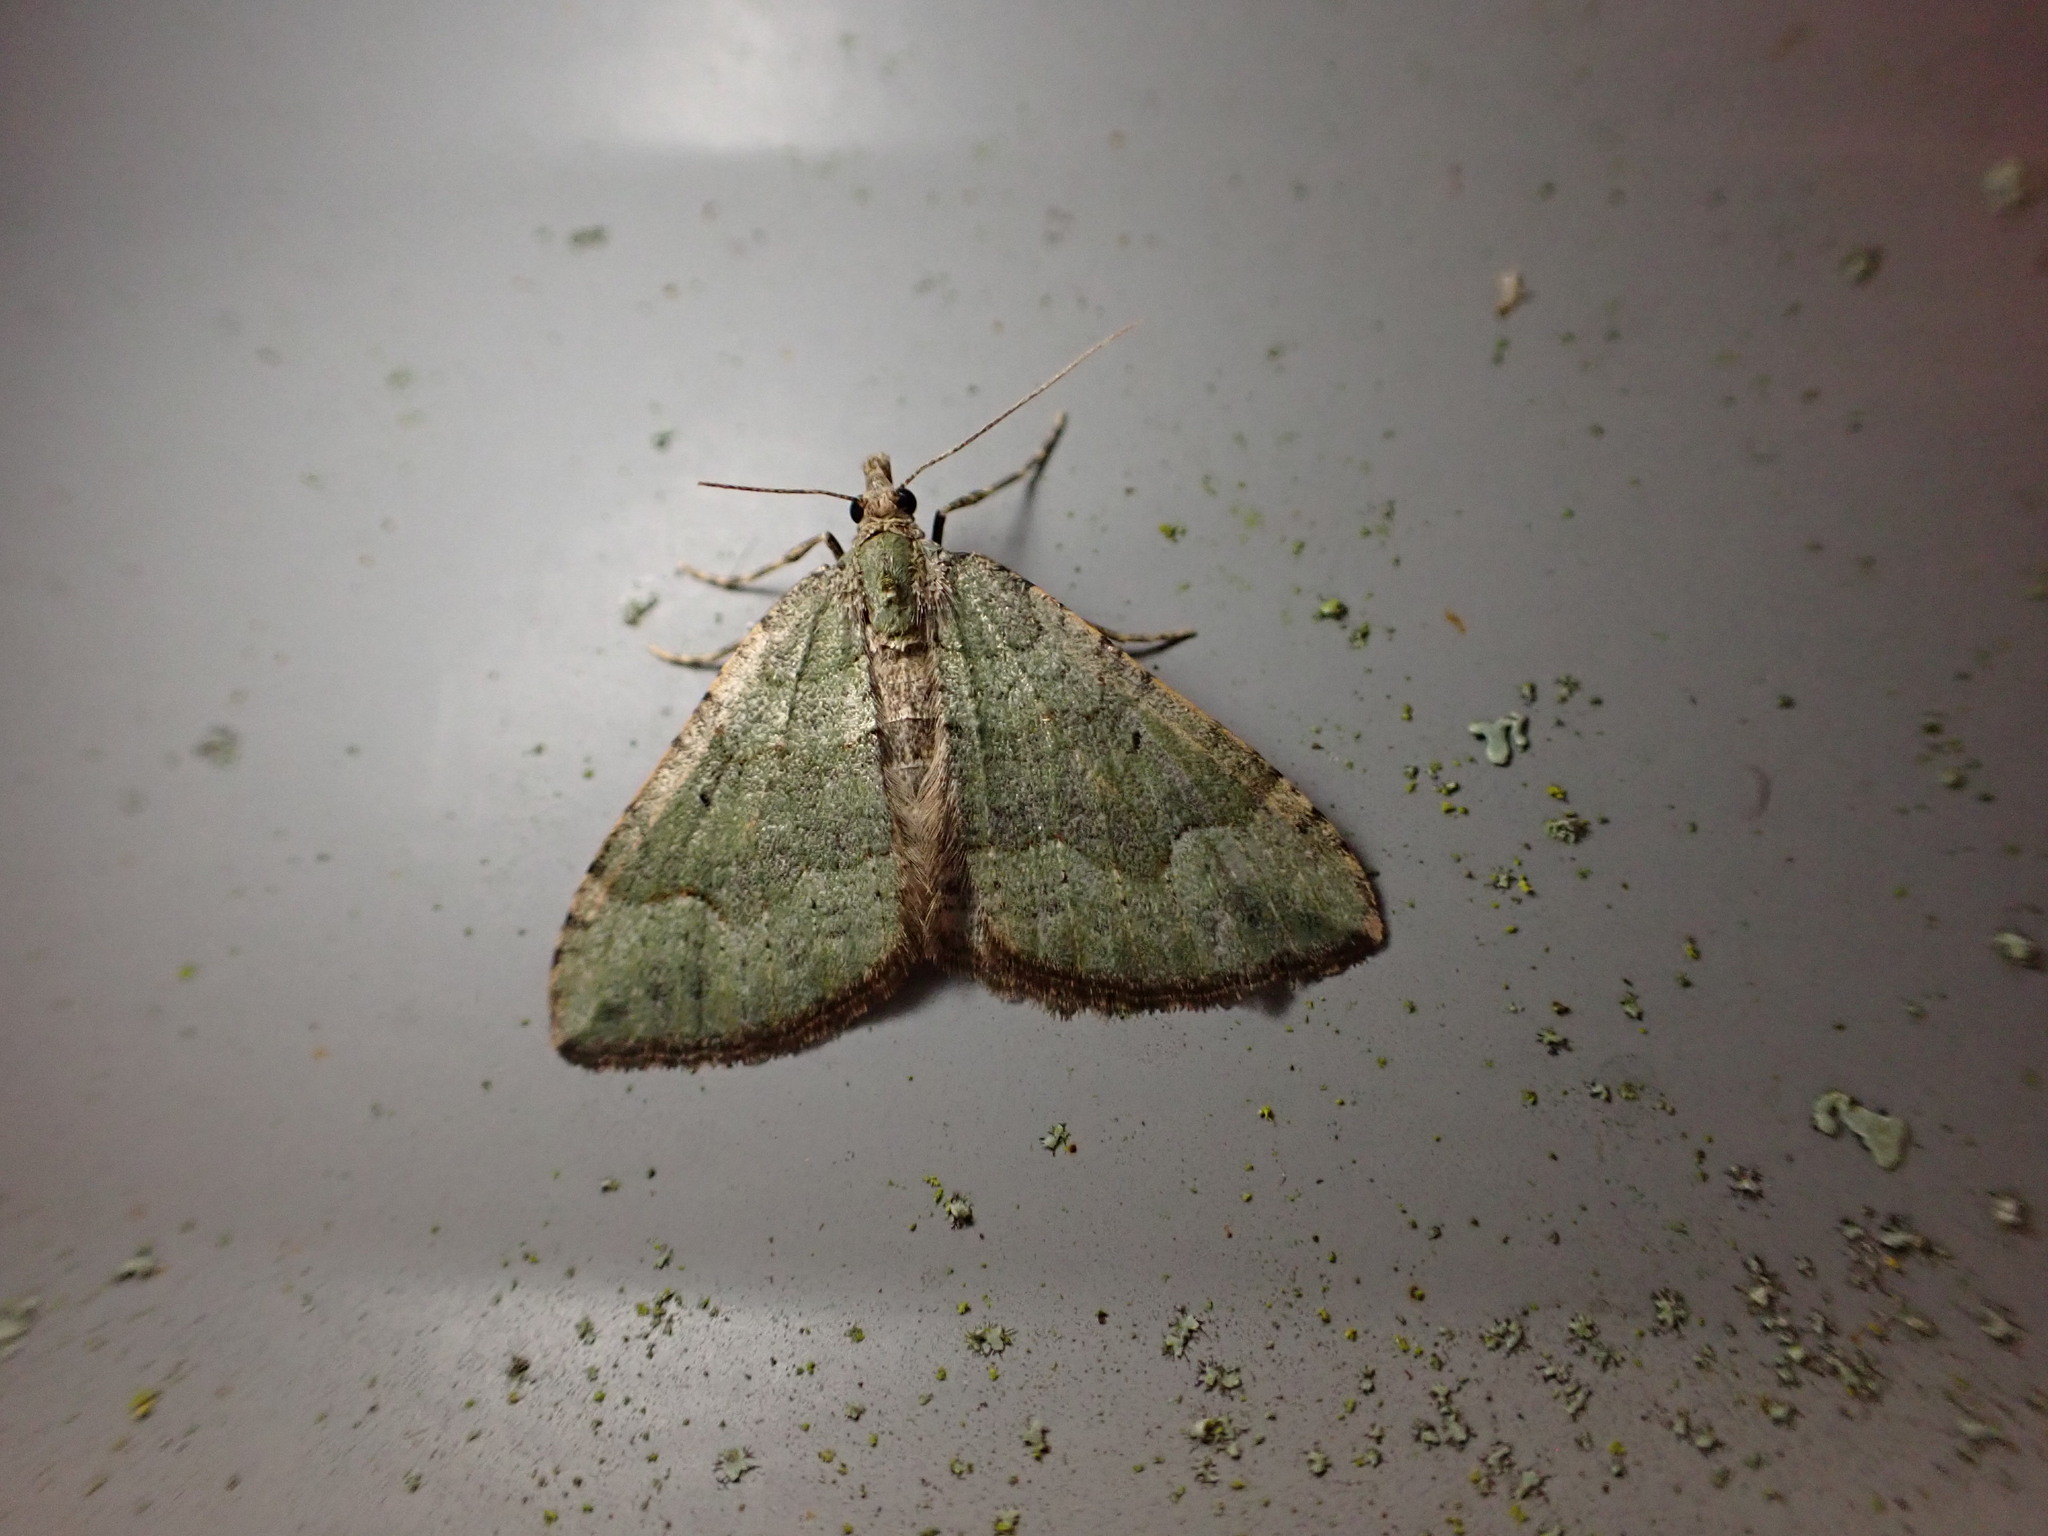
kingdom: Animalia
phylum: Arthropoda
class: Insecta
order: Lepidoptera
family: Geometridae
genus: Epyaxa
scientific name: Epyaxa rosearia
